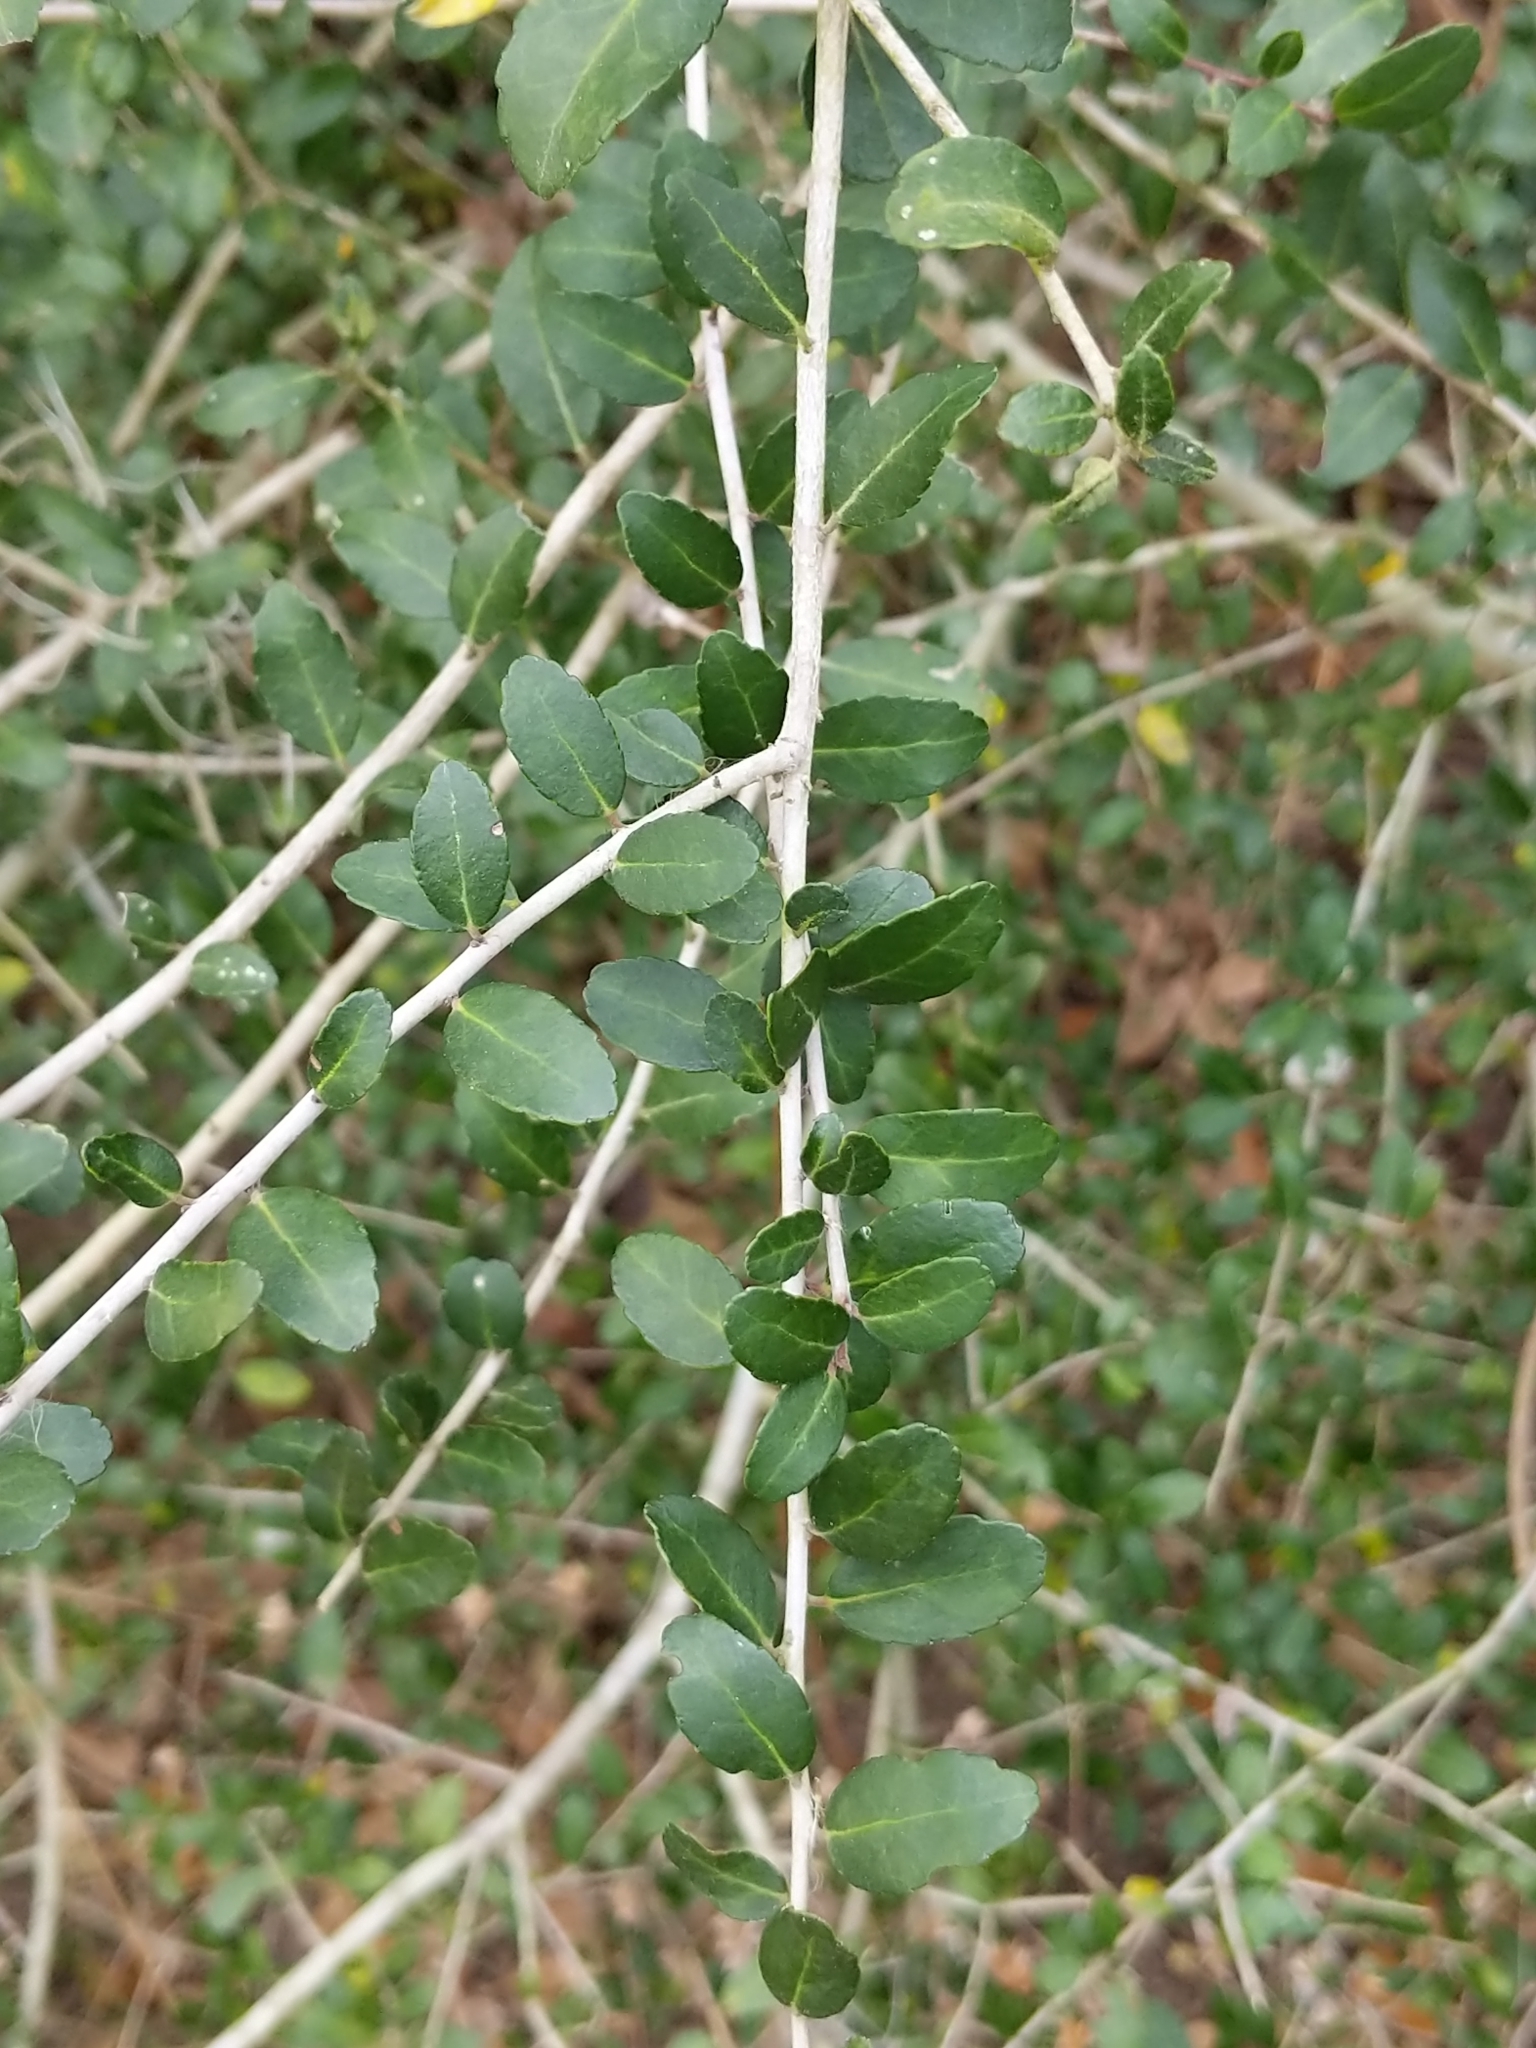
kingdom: Plantae
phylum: Tracheophyta
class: Magnoliopsida
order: Aquifoliales
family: Aquifoliaceae
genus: Ilex
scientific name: Ilex vomitoria
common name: Yaupon holly
